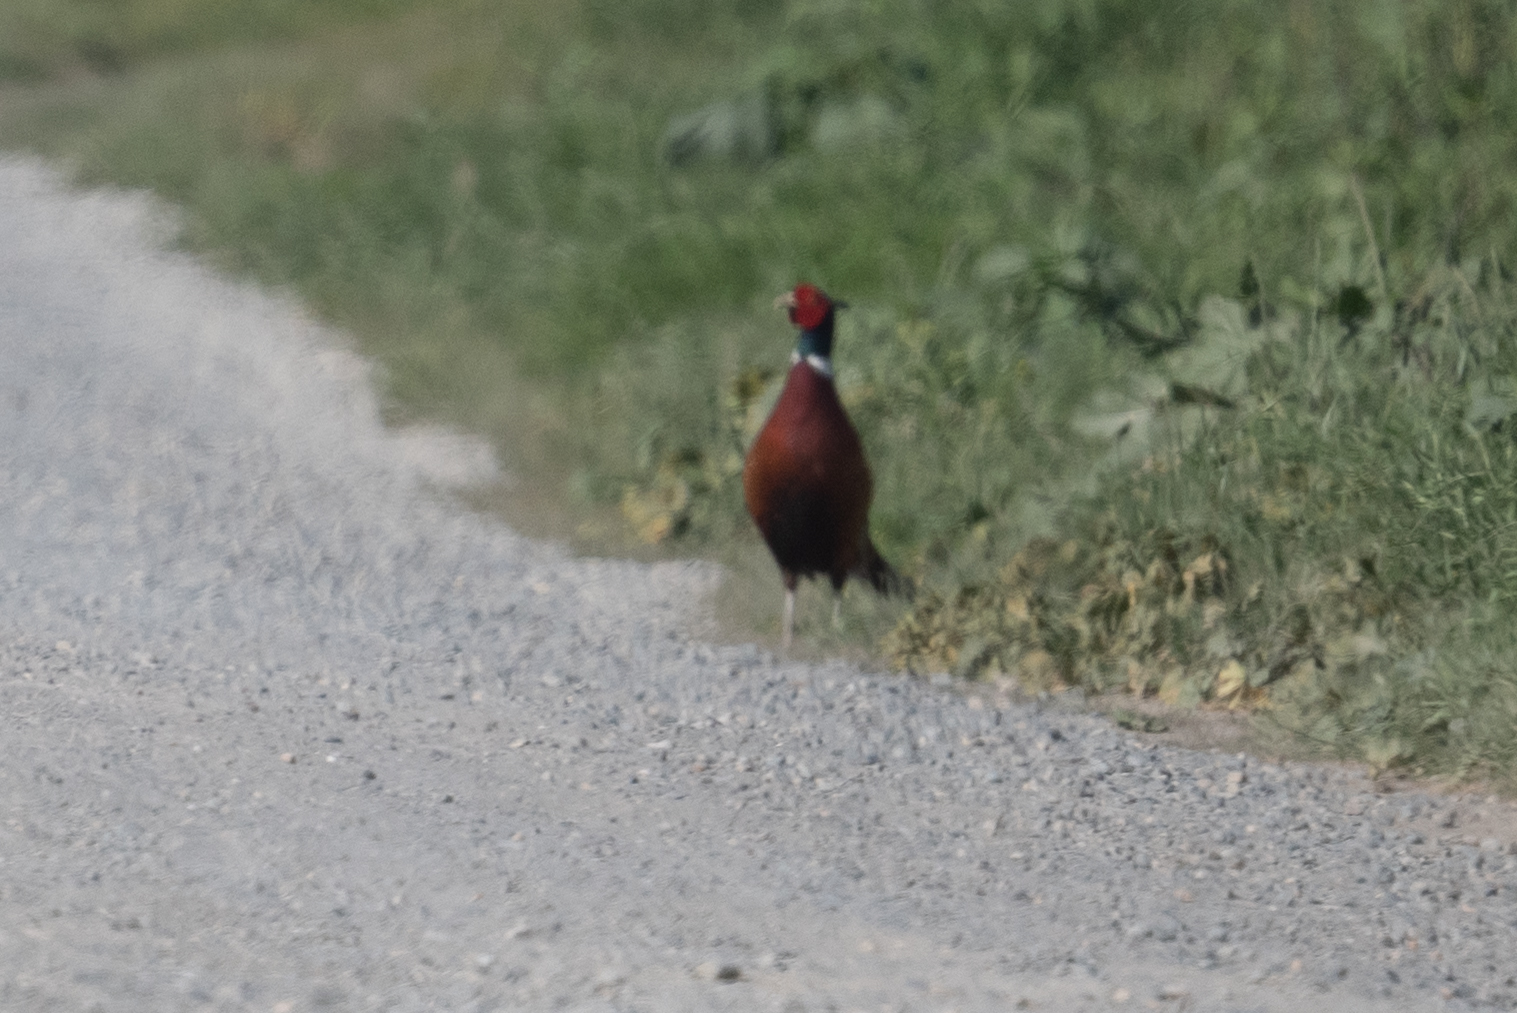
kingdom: Animalia
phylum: Chordata
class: Aves
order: Galliformes
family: Phasianidae
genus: Phasianus
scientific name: Phasianus colchicus
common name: Common pheasant
